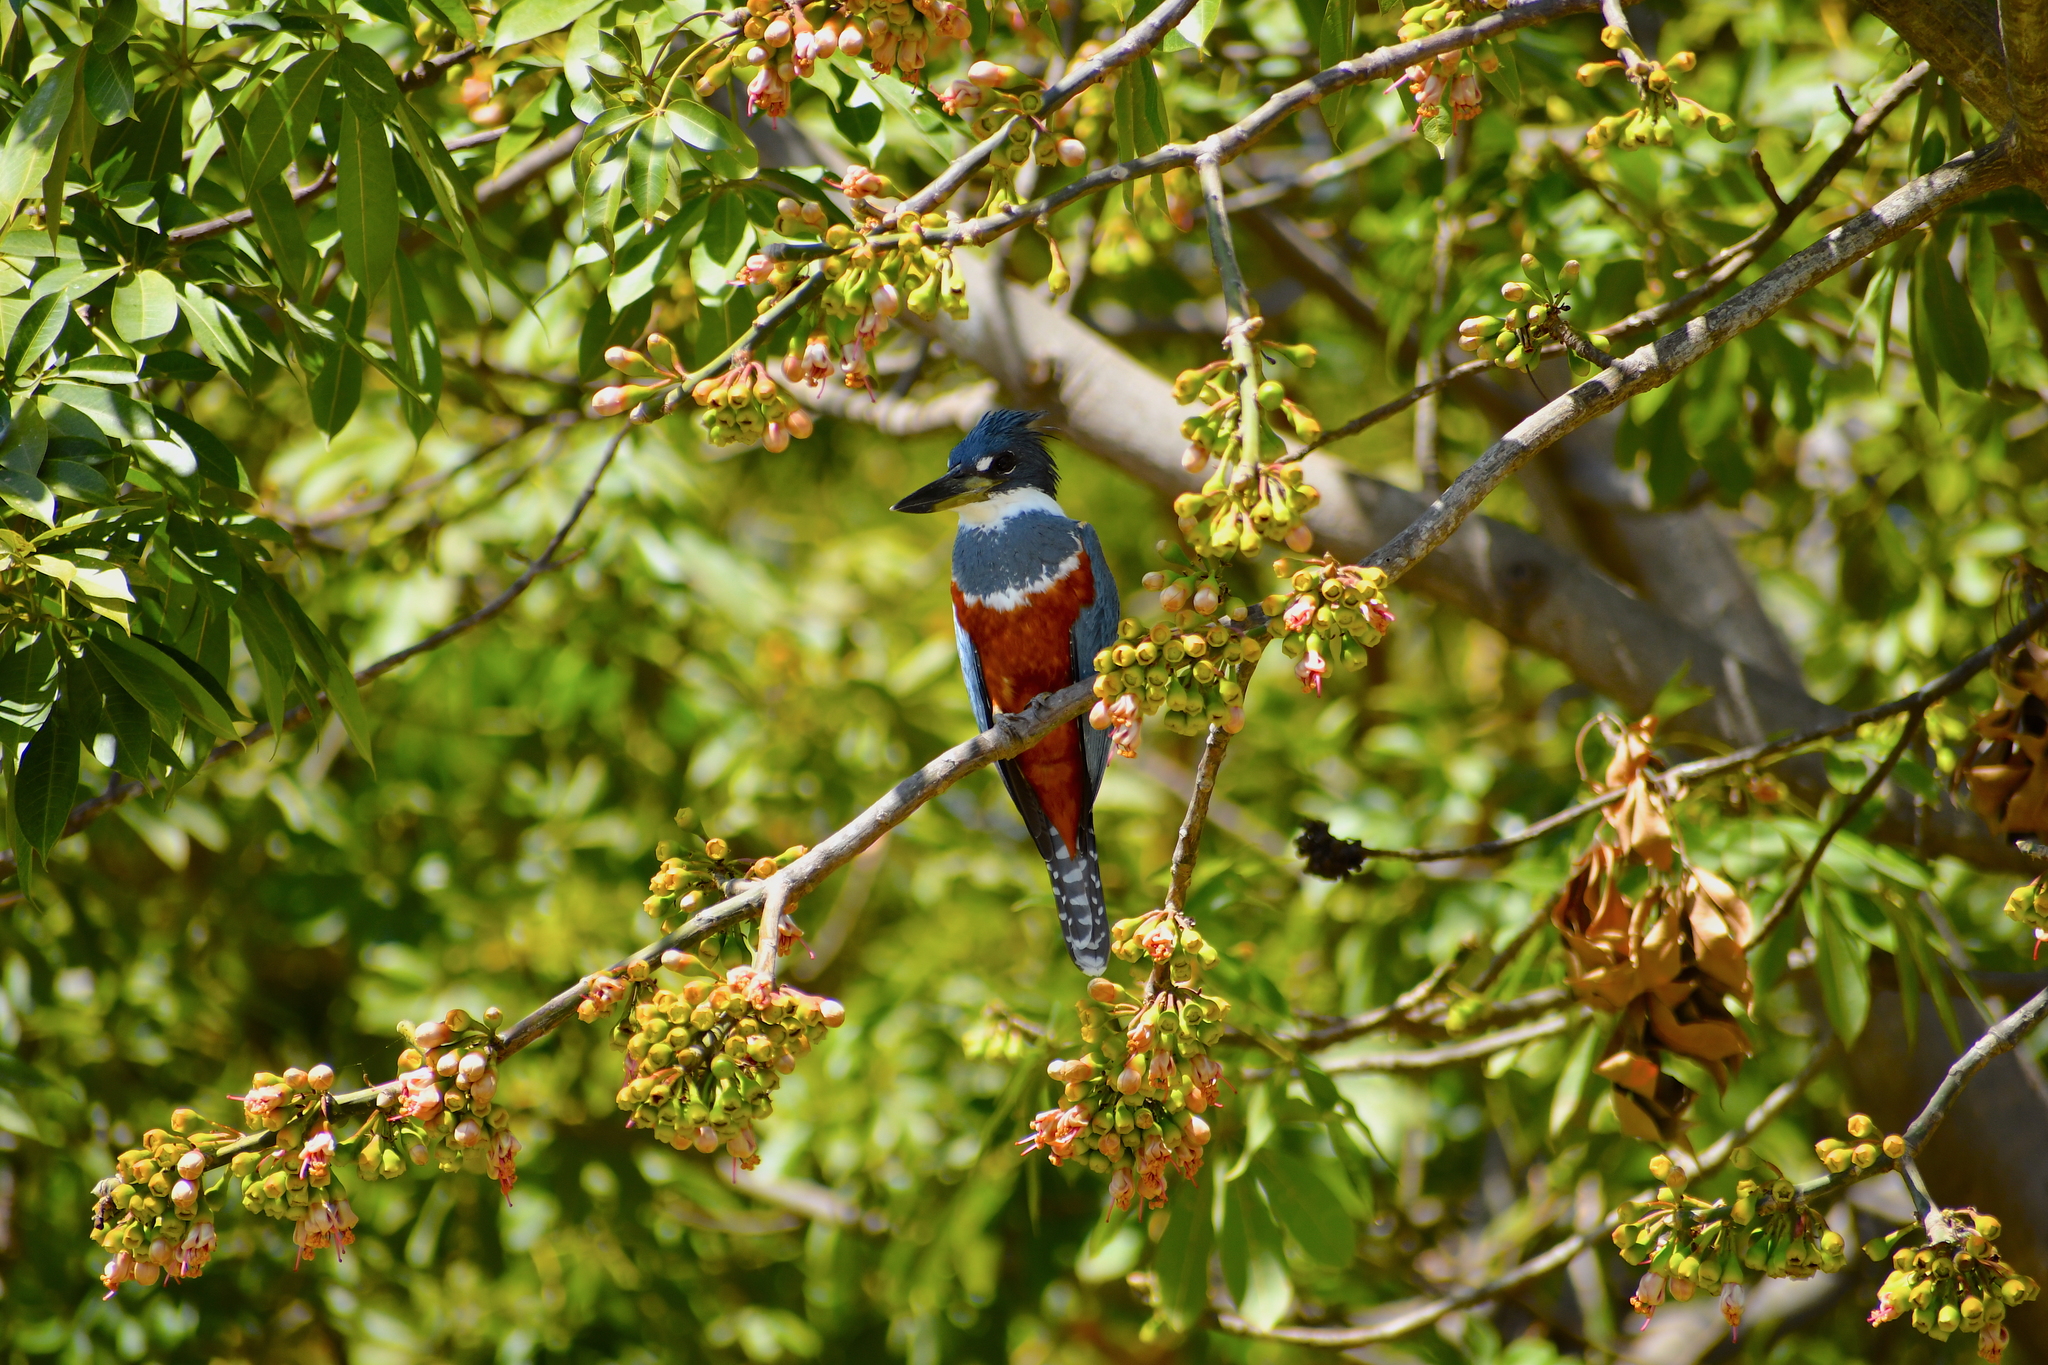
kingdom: Animalia
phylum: Chordata
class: Aves
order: Coraciiformes
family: Alcedinidae
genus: Megaceryle
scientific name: Megaceryle torquata
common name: Ringed kingfisher
